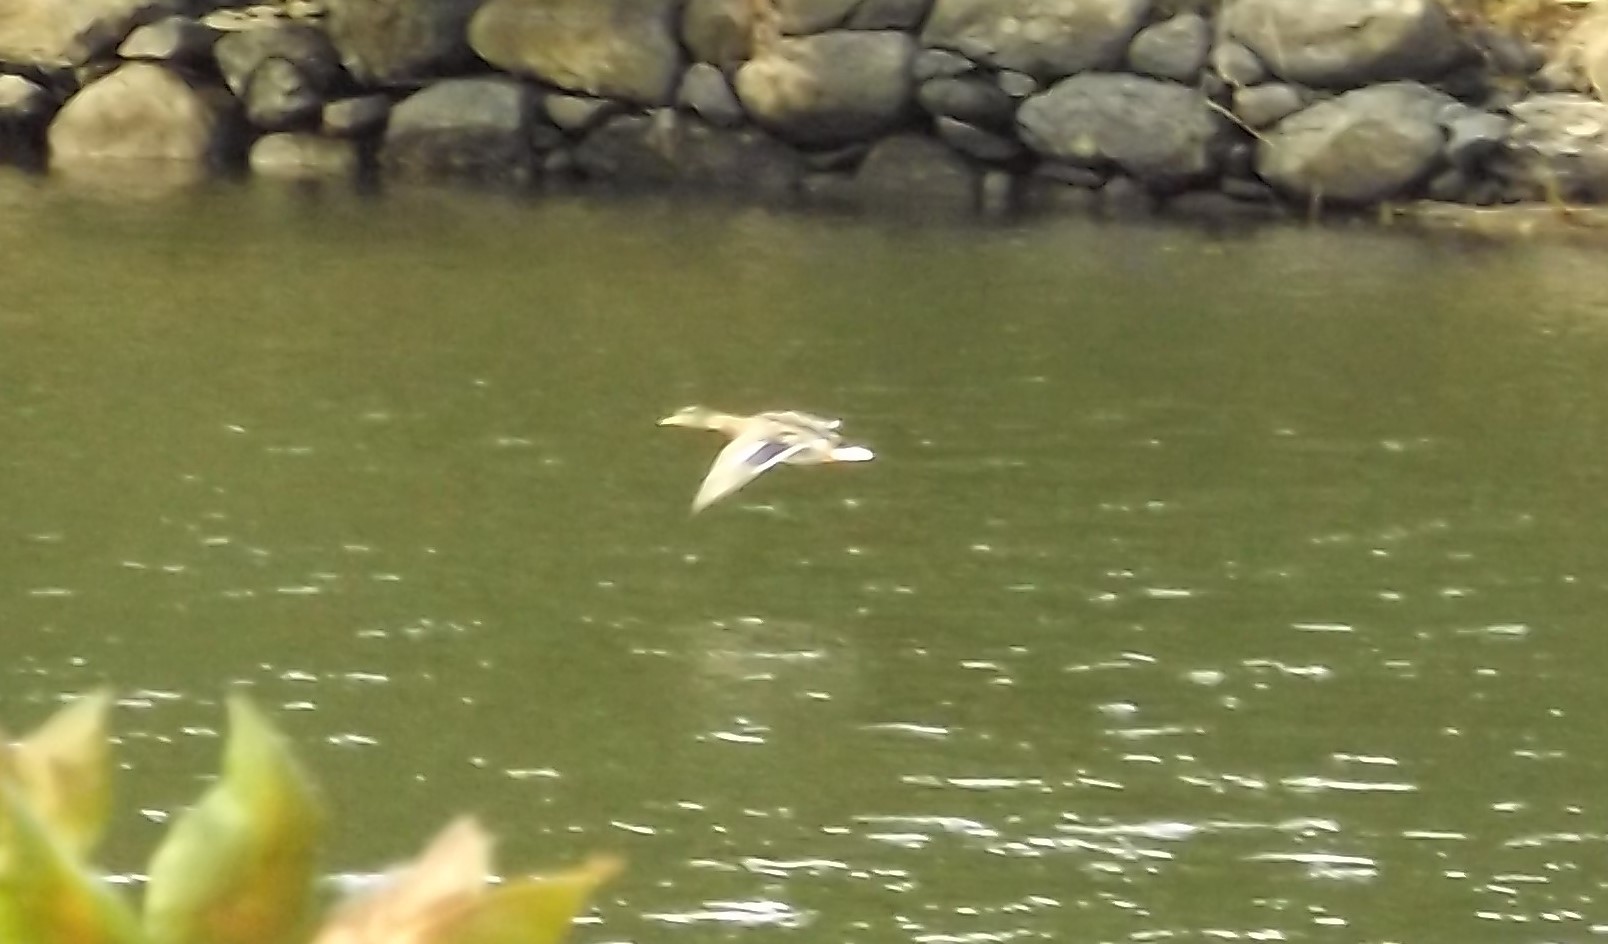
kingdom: Animalia
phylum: Chordata
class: Aves
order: Anseriformes
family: Anatidae
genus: Anas
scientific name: Anas platyrhynchos
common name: Mallard
